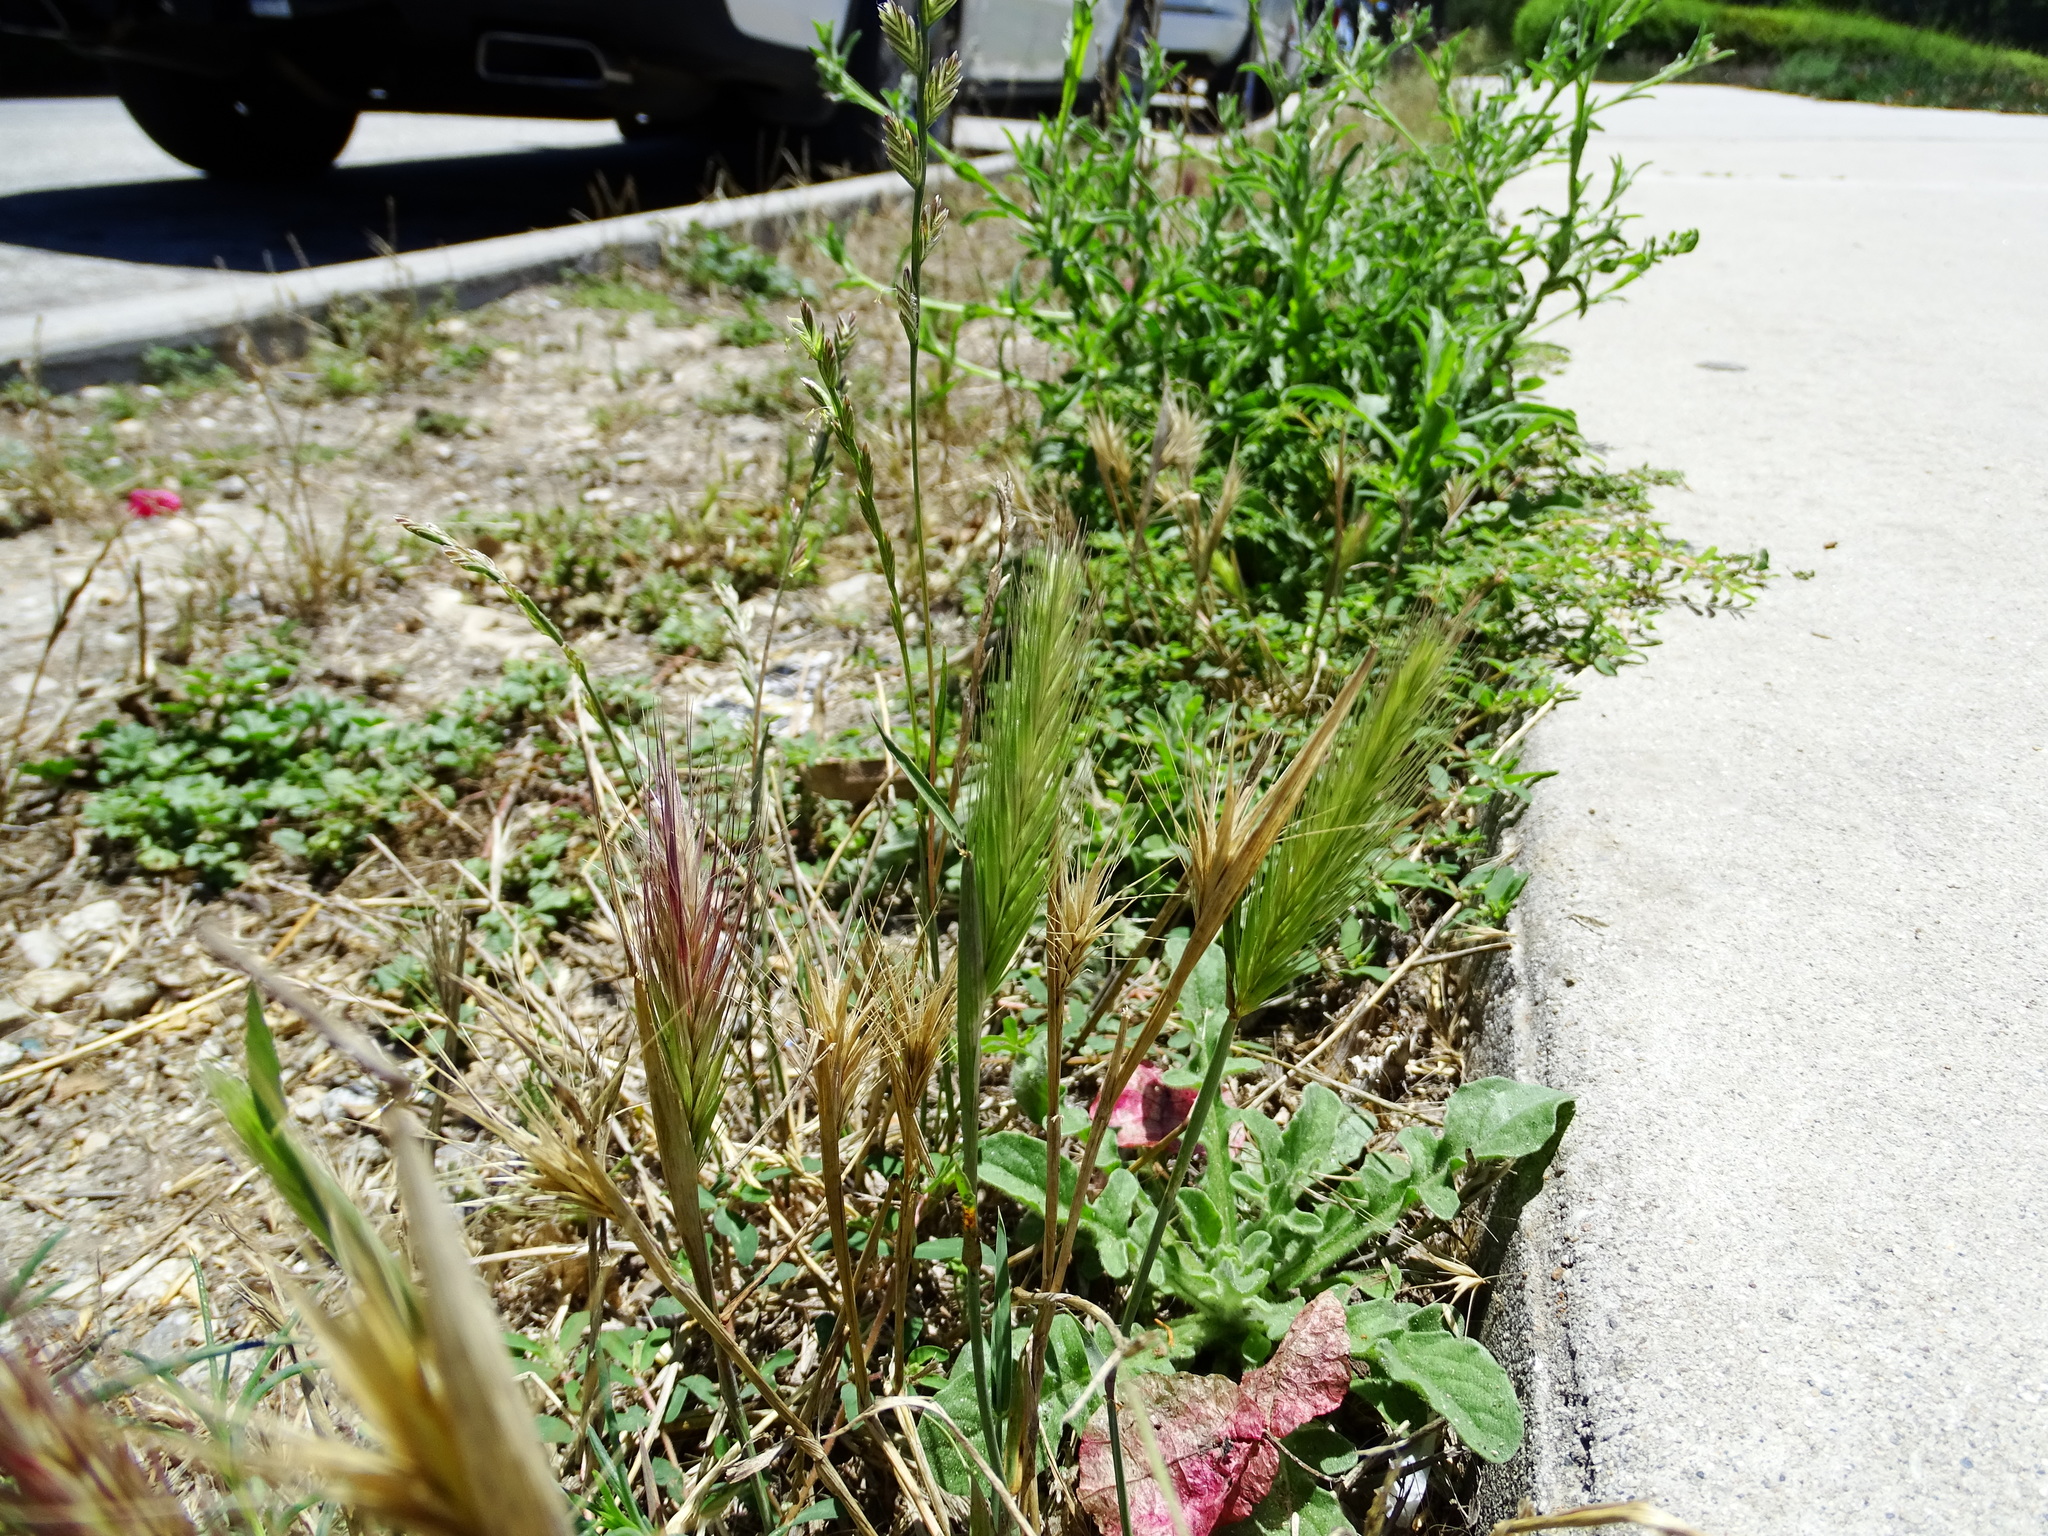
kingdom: Plantae
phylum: Tracheophyta
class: Liliopsida
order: Poales
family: Poaceae
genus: Hordeum
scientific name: Hordeum murinum
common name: Wall barley
